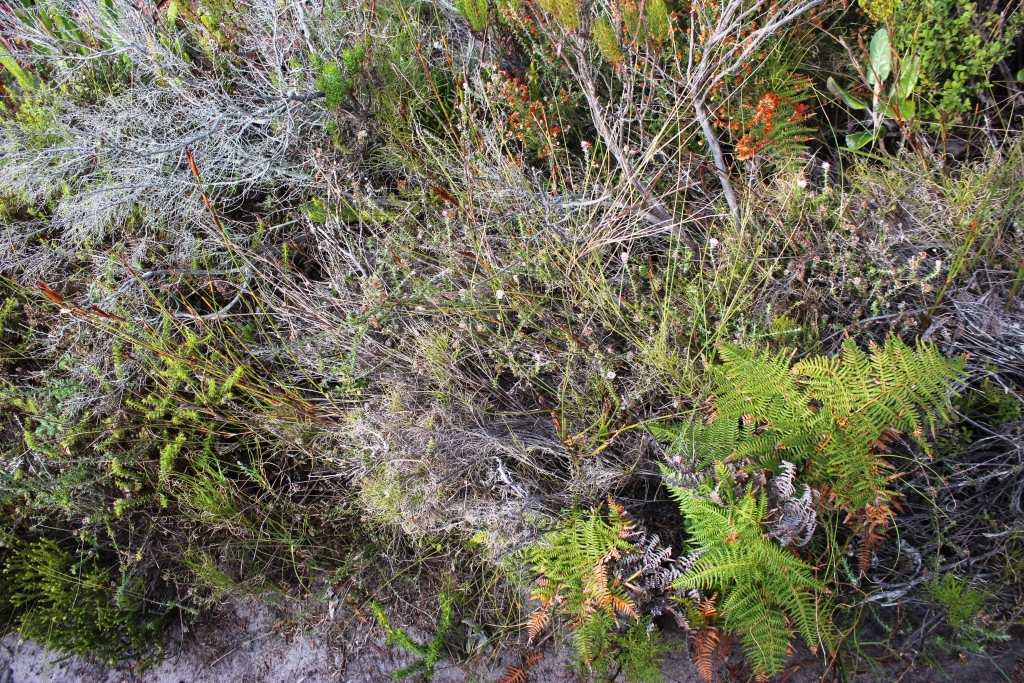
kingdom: Plantae
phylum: Tracheophyta
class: Magnoliopsida
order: Asterales
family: Asteraceae
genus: Metalasia
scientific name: Metalasia divergens
